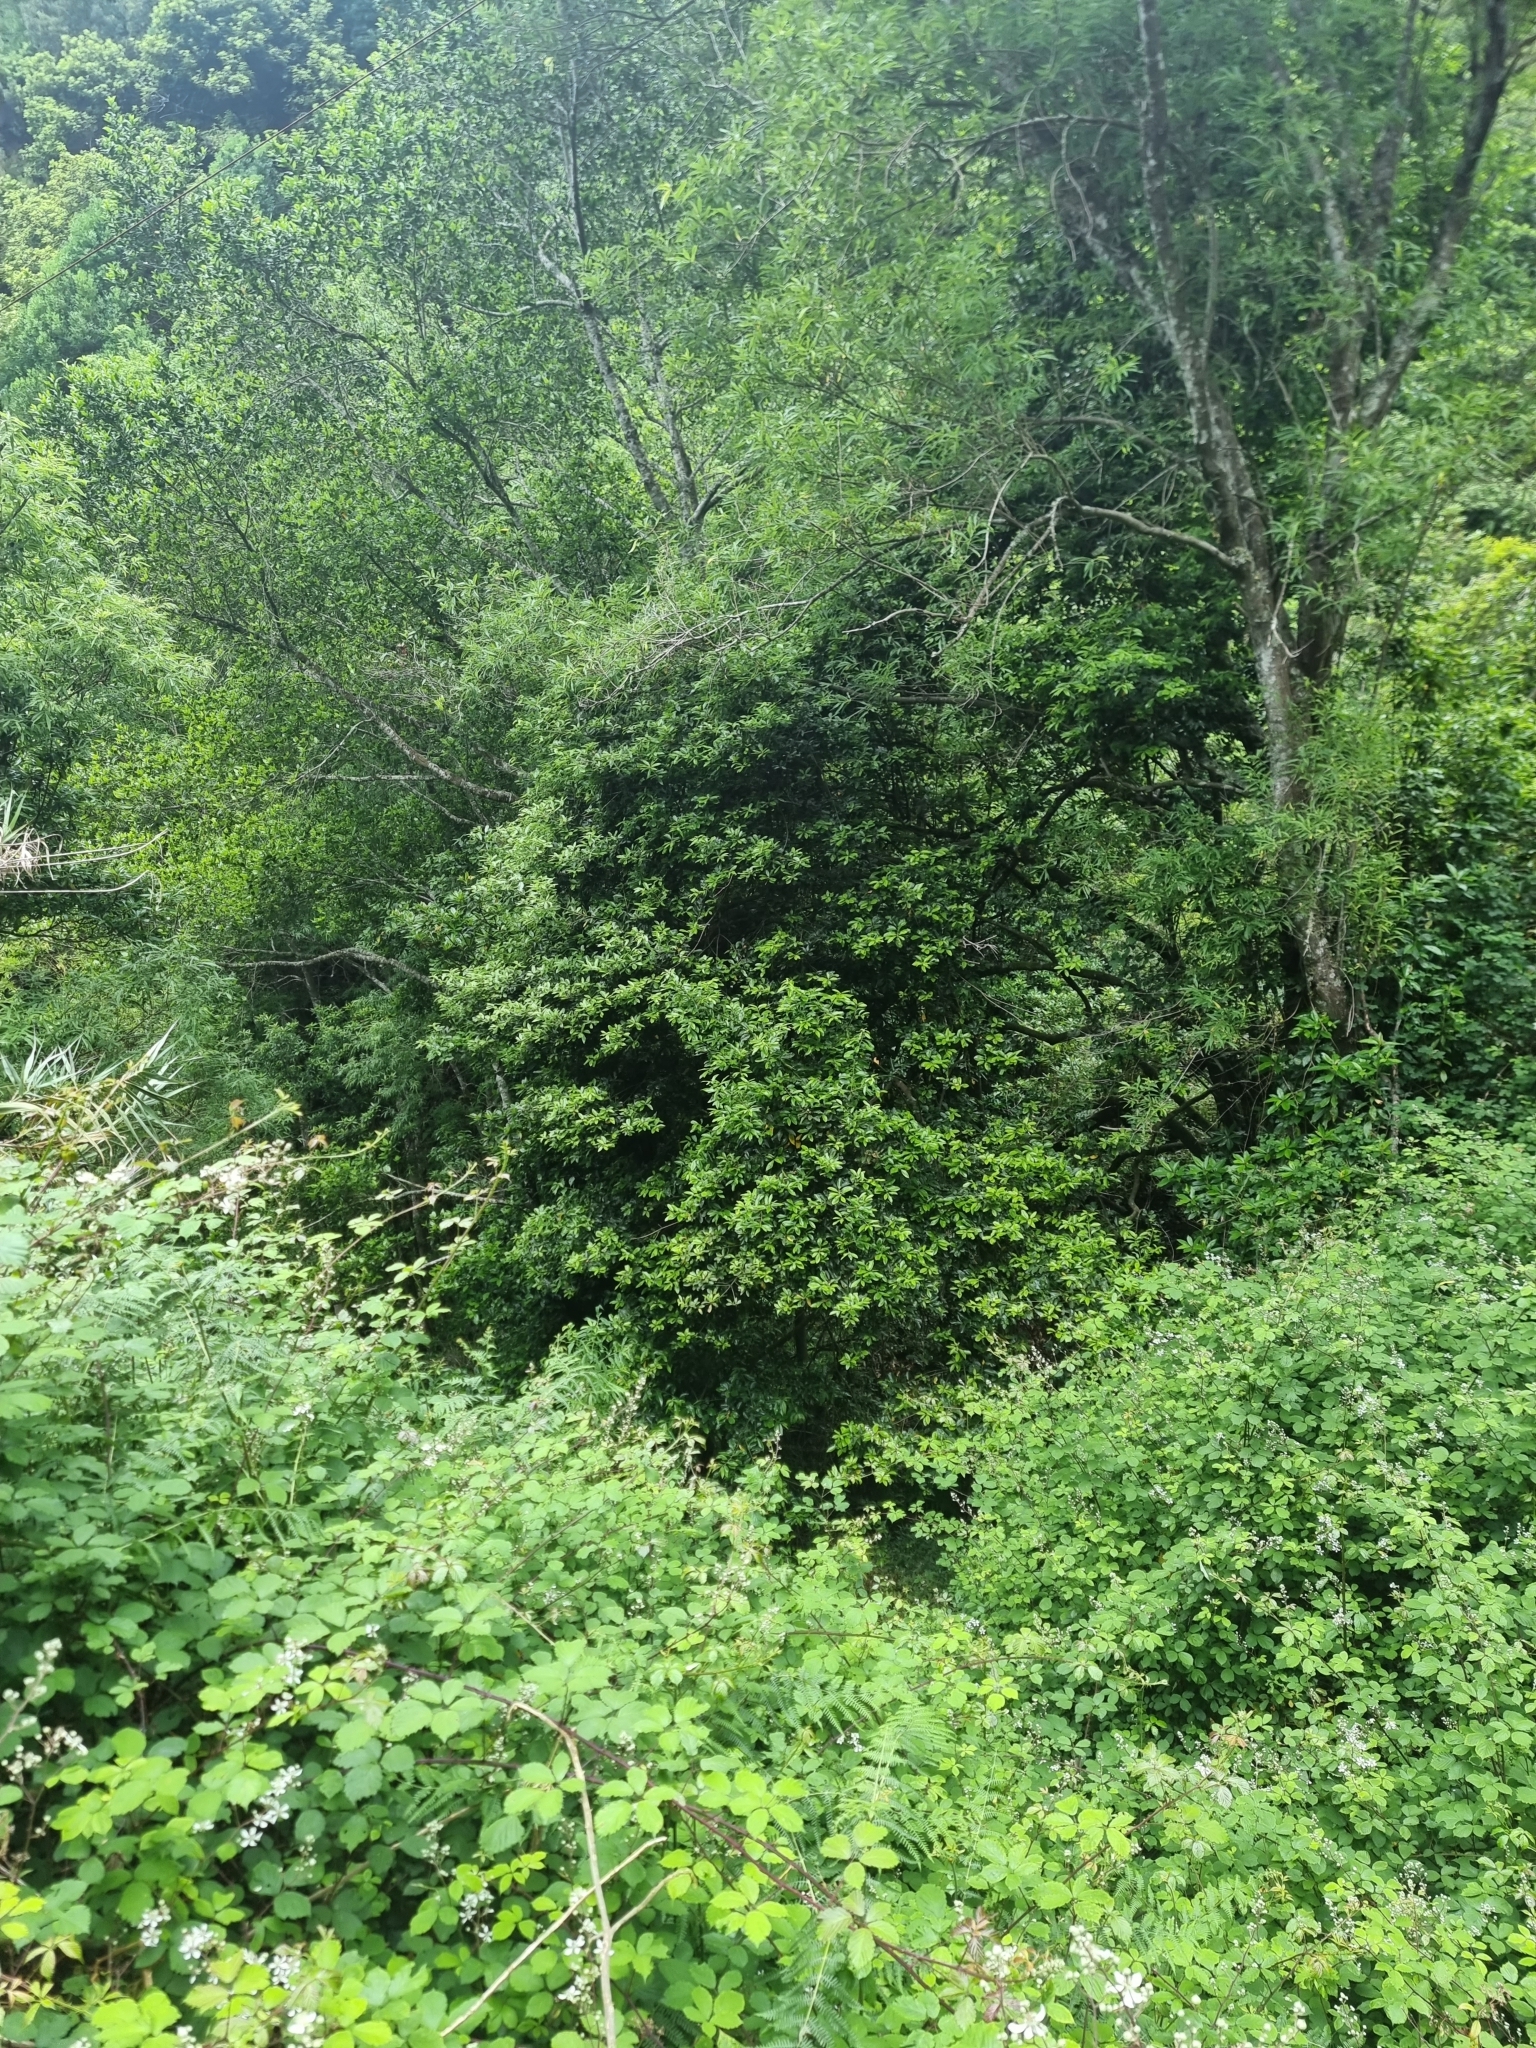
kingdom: Plantae
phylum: Tracheophyta
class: Magnoliopsida
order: Laurales
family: Lauraceae
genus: Laurus
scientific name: Laurus novocanariensis
